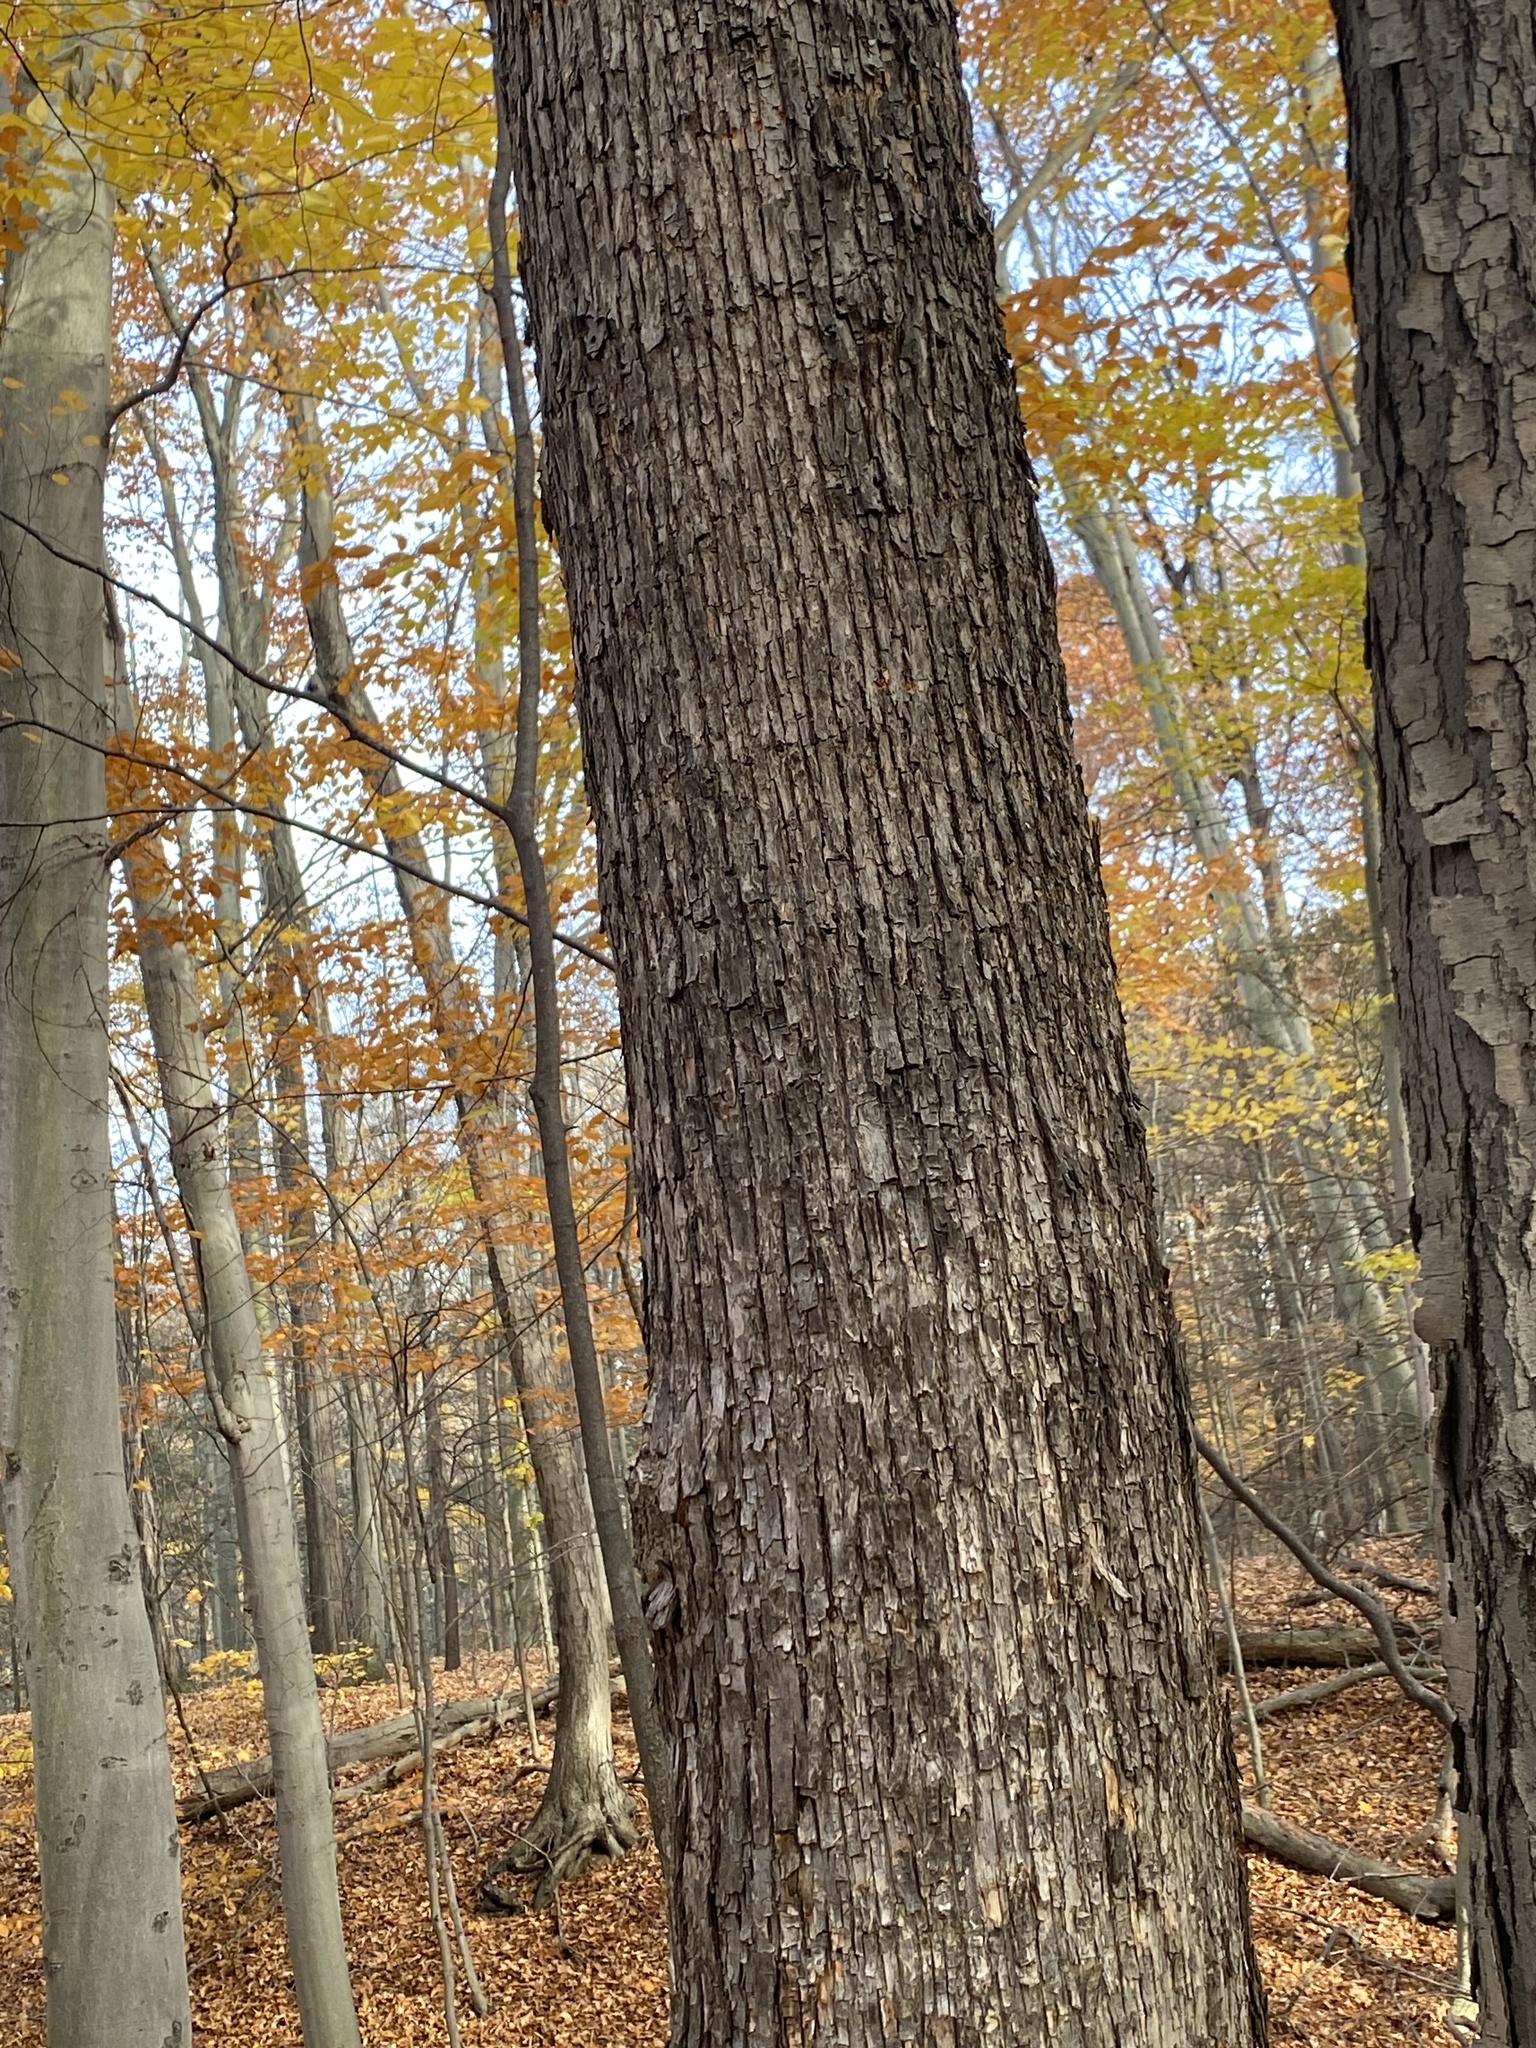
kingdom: Plantae
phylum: Tracheophyta
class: Magnoliopsida
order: Fagales
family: Betulaceae
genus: Ostrya
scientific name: Ostrya virginiana
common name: Ironwood
